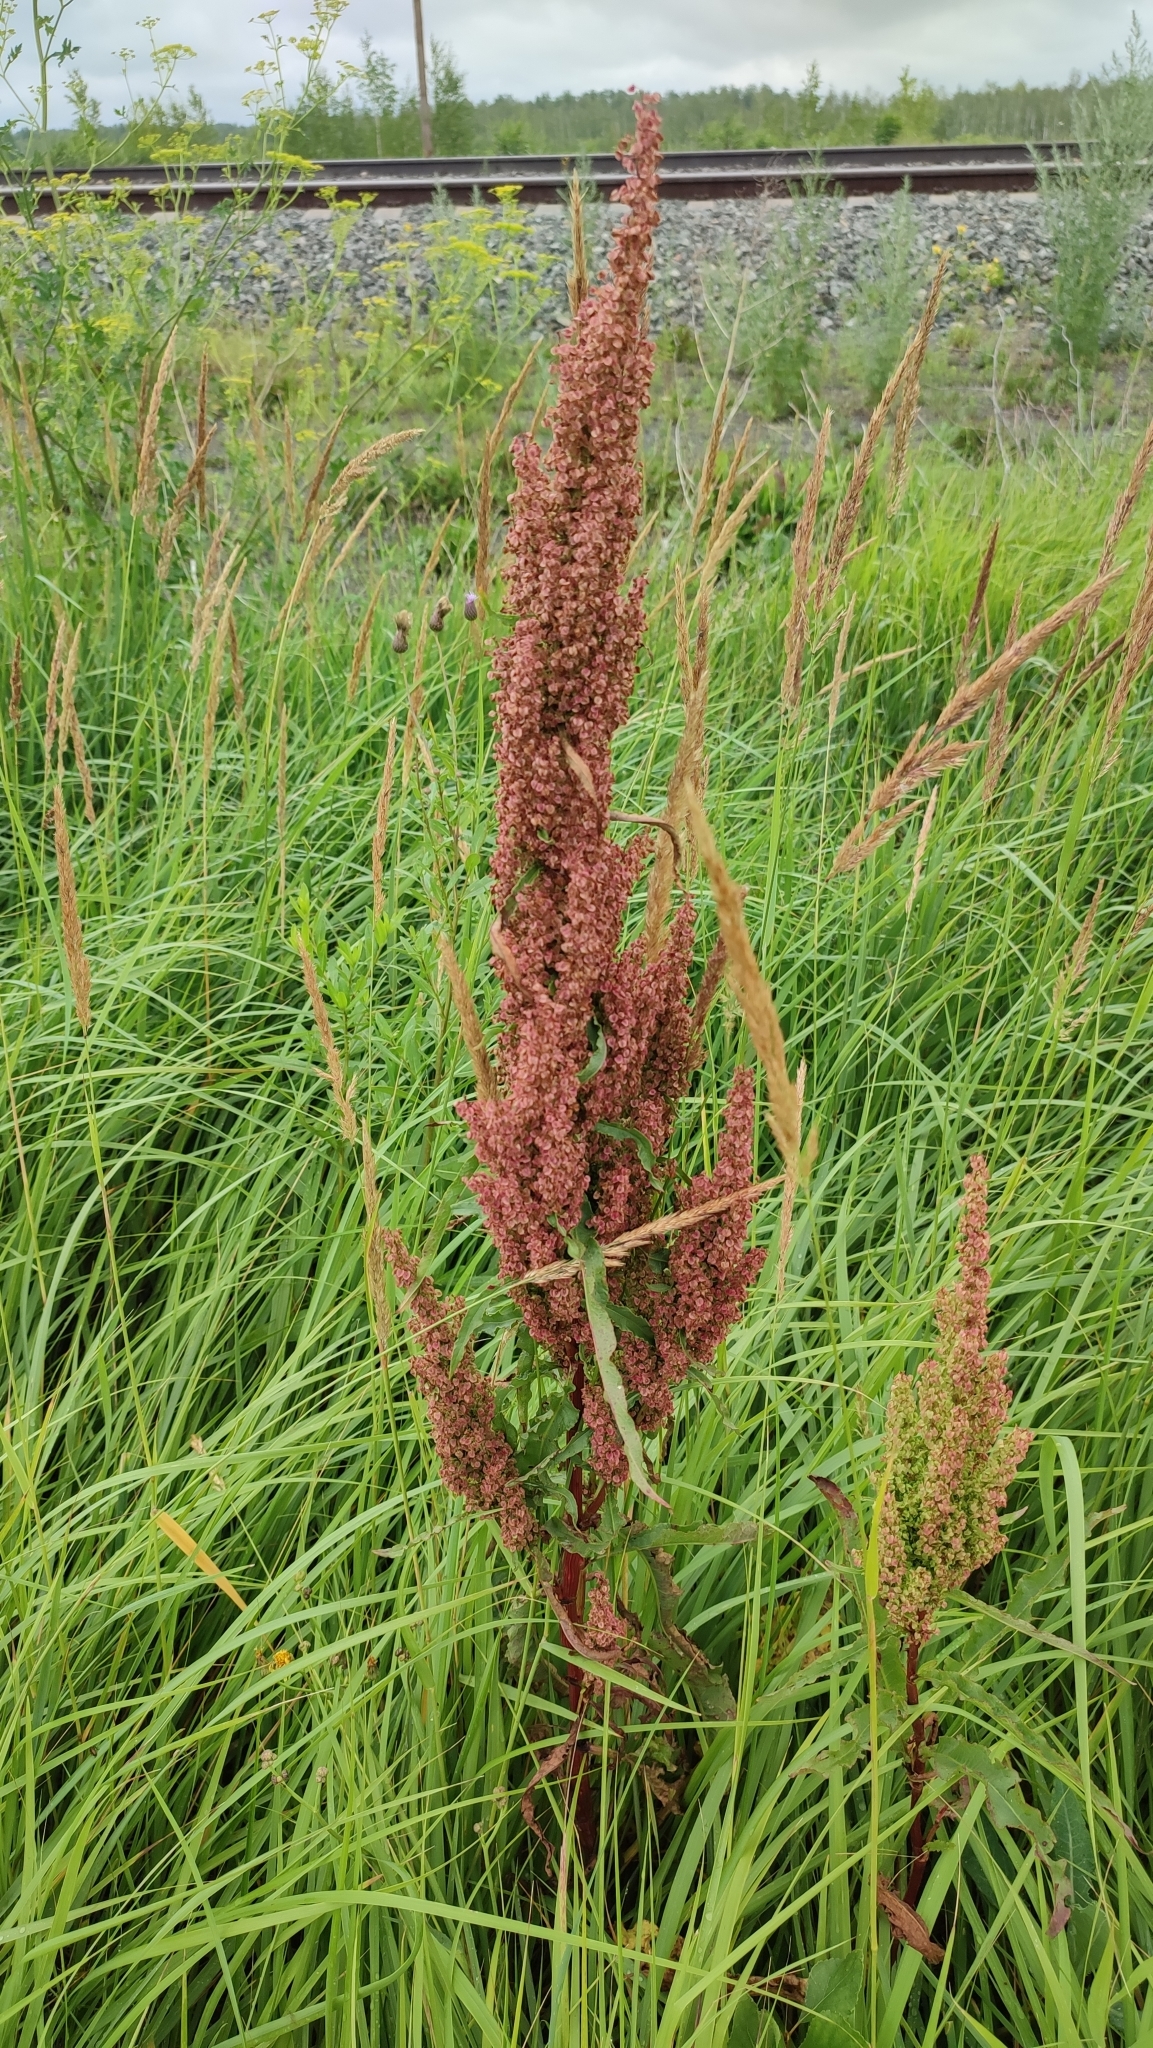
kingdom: Plantae
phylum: Tracheophyta
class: Magnoliopsida
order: Caryophyllales
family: Polygonaceae
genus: Rumex
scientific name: Rumex pseudonatronatus
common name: Field dock
